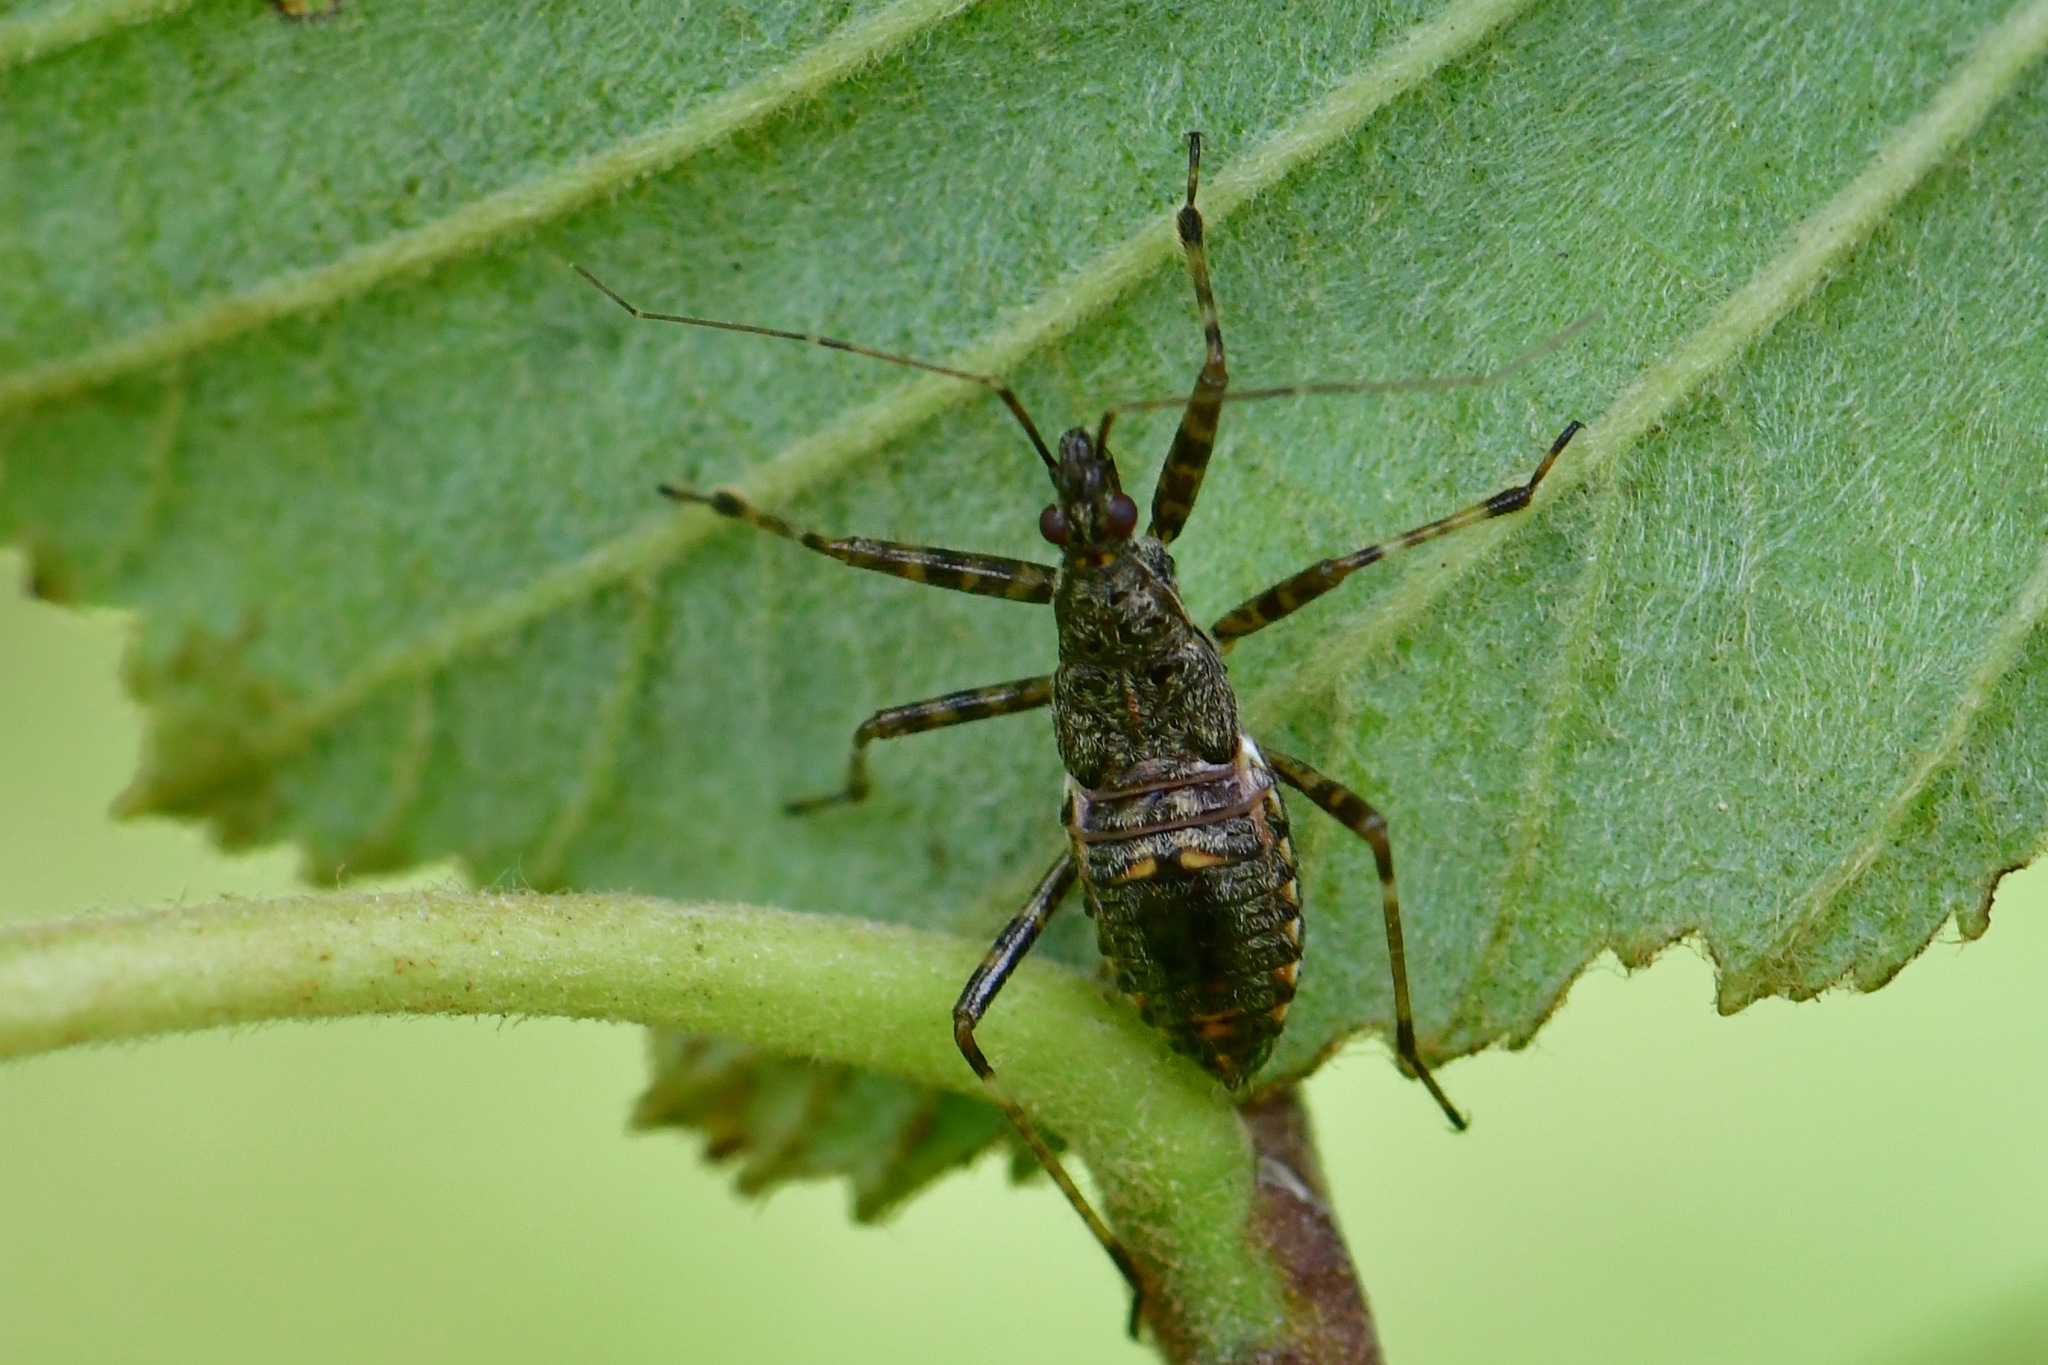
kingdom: Animalia
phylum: Arthropoda
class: Insecta
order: Hemiptera
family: Nabidae
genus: Himacerus
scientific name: Himacerus apterus
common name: Tree damsel bug
